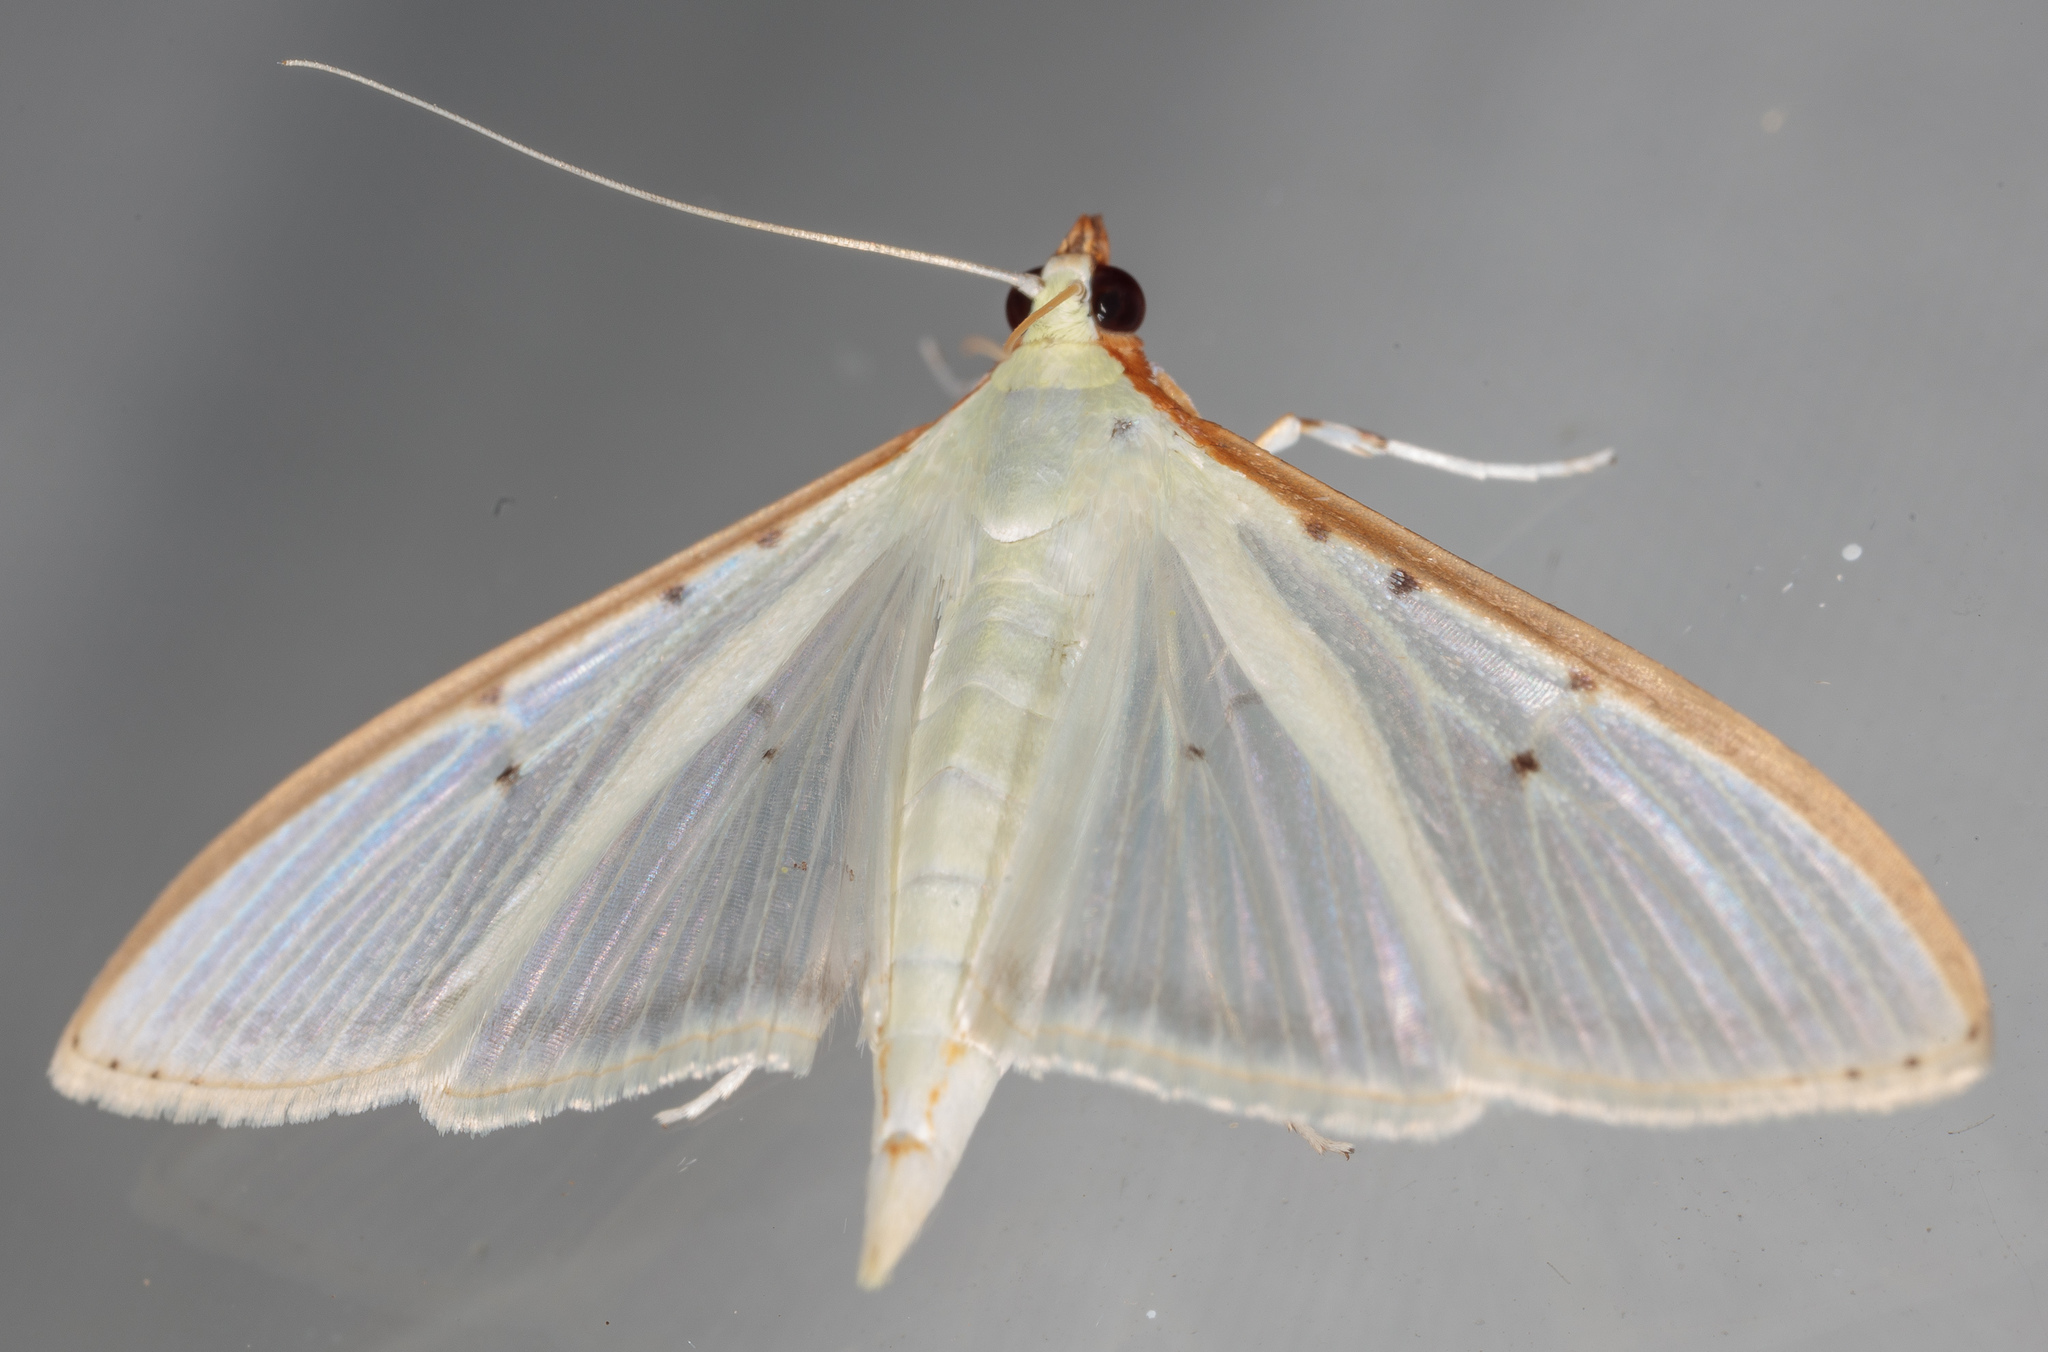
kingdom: Animalia
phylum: Arthropoda
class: Insecta
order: Lepidoptera
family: Crambidae
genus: Palpita
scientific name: Palpita quadristigmalis
